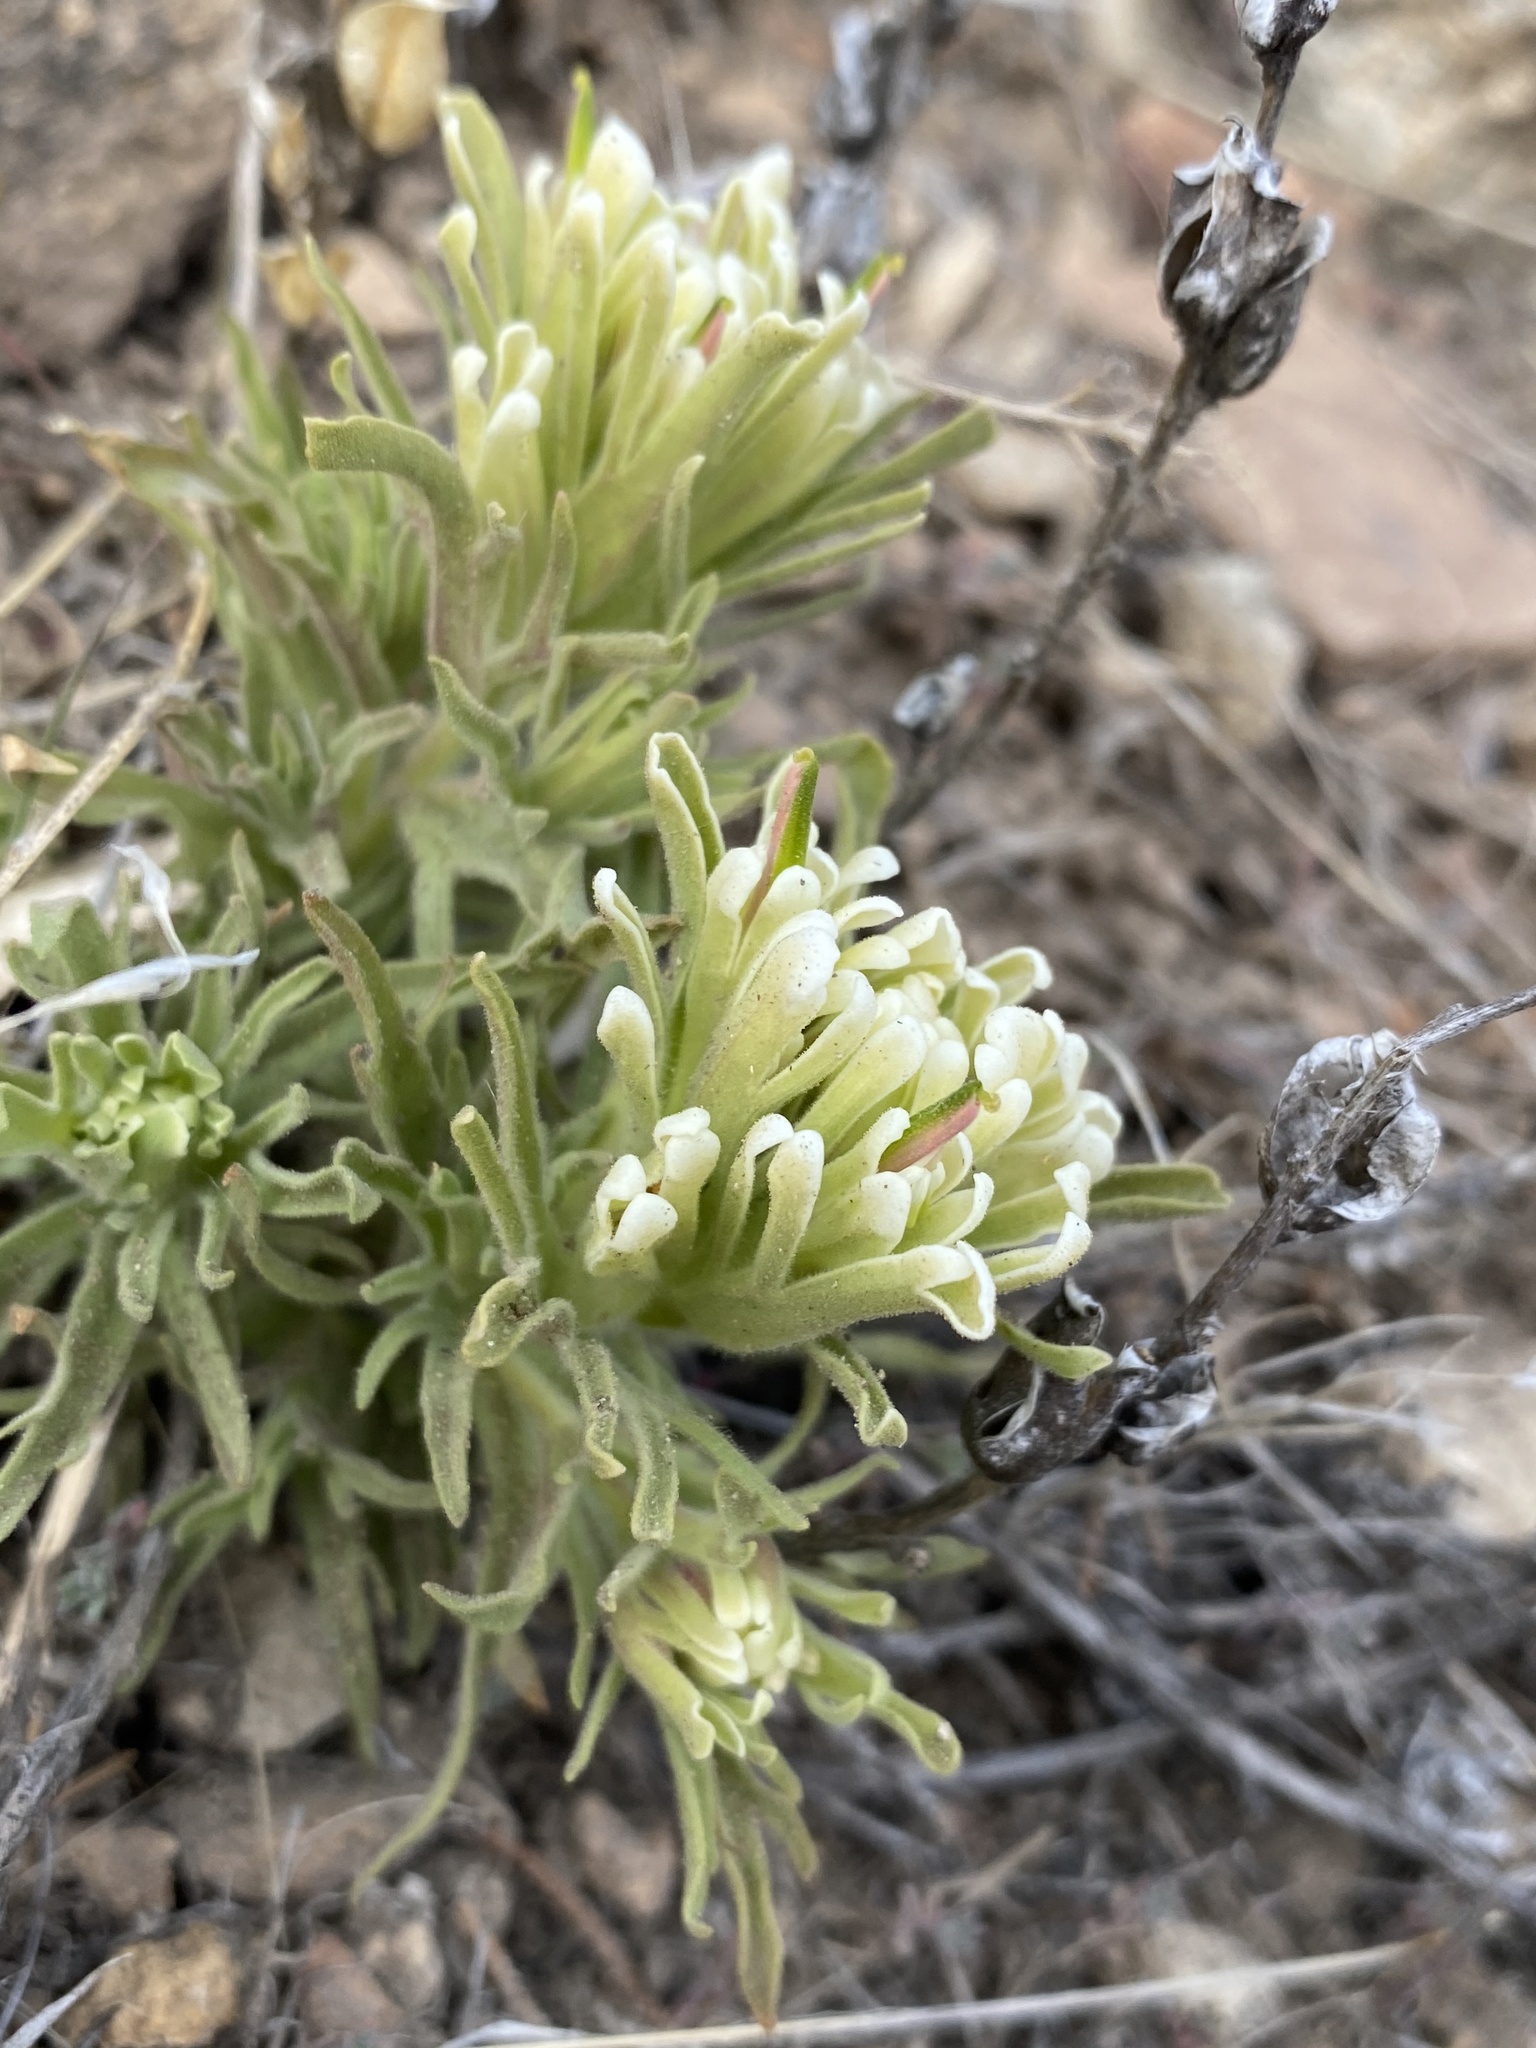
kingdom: Plantae
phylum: Tracheophyta
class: Magnoliopsida
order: Lamiales
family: Orobanchaceae
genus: Castilleja
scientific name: Castilleja xanthotricha
